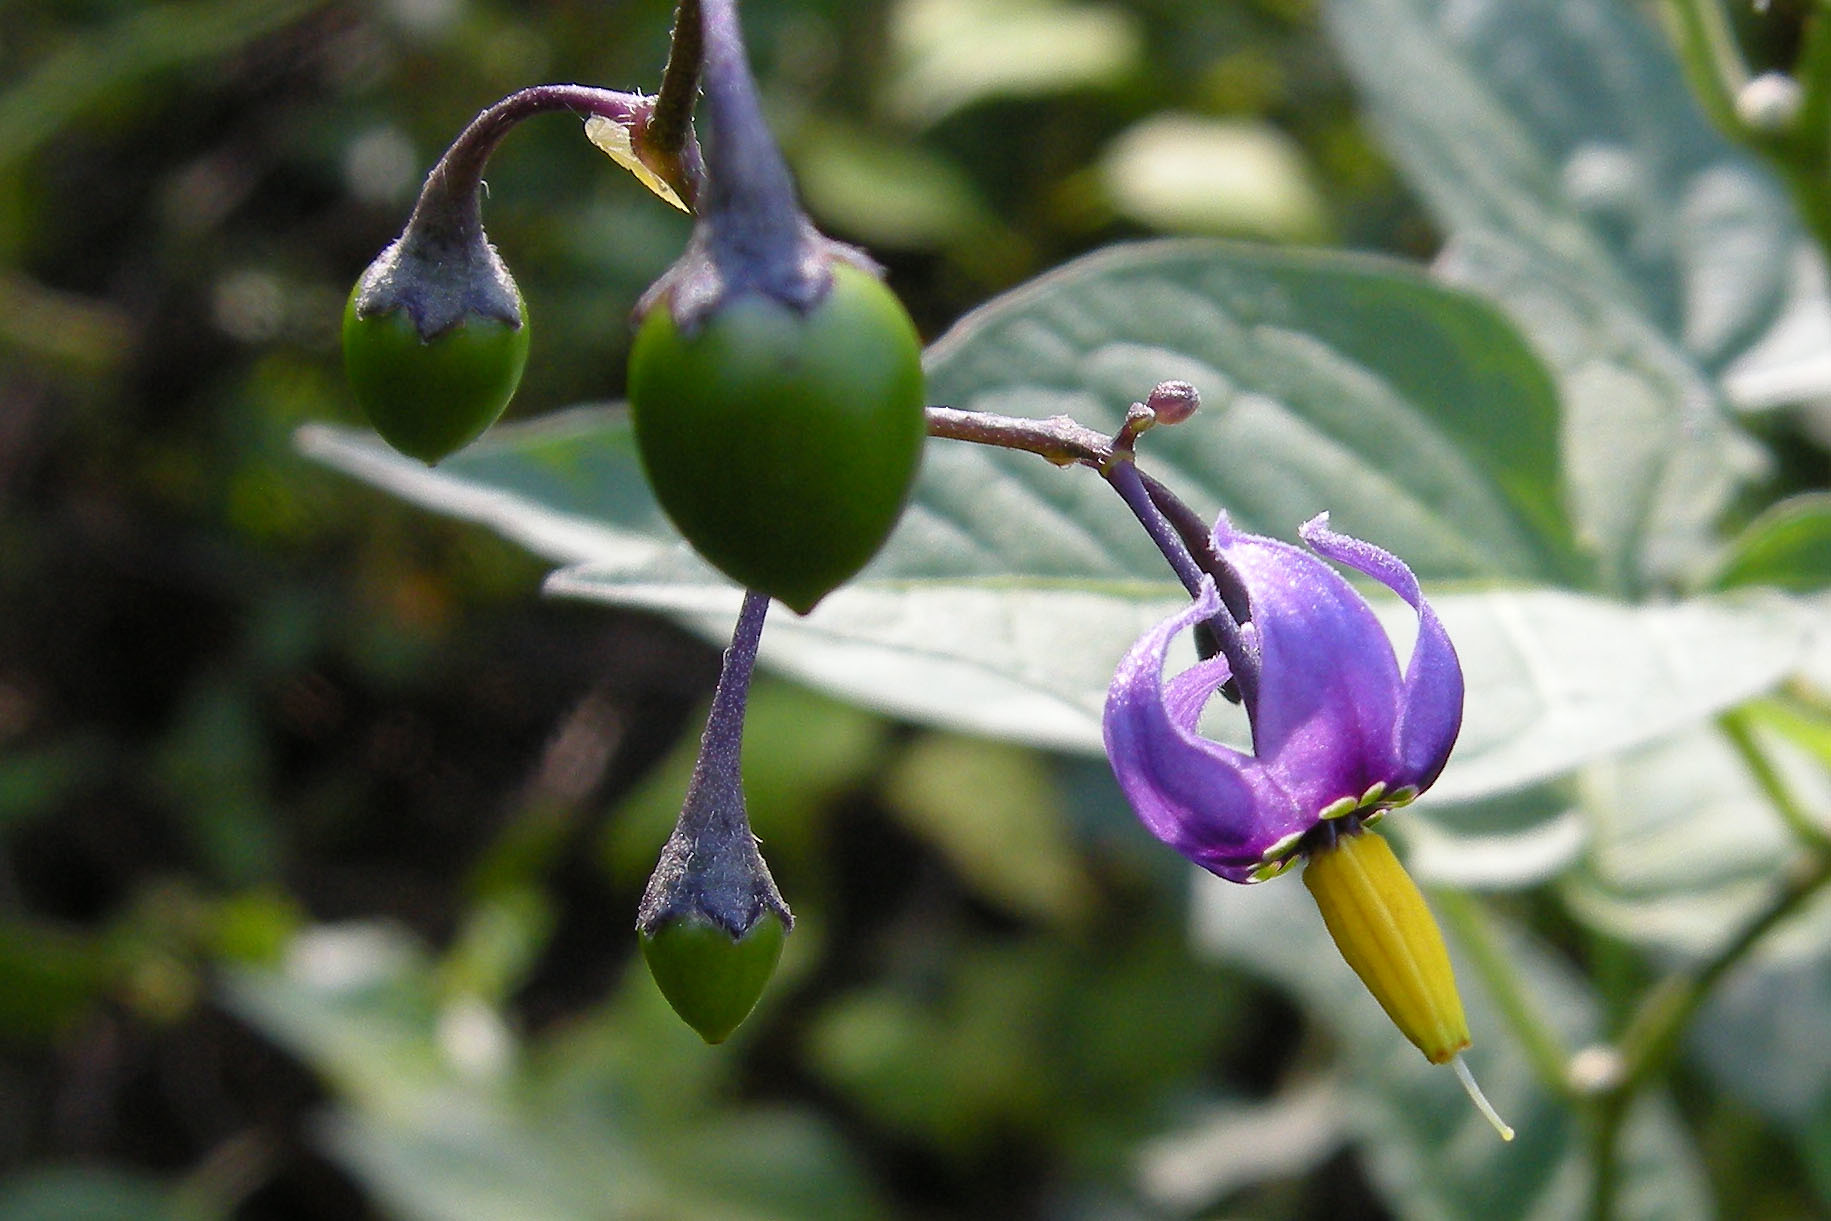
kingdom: Plantae
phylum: Tracheophyta
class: Magnoliopsida
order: Solanales
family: Solanaceae
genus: Solanum
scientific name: Solanum dulcamara
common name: Climbing nightshade
